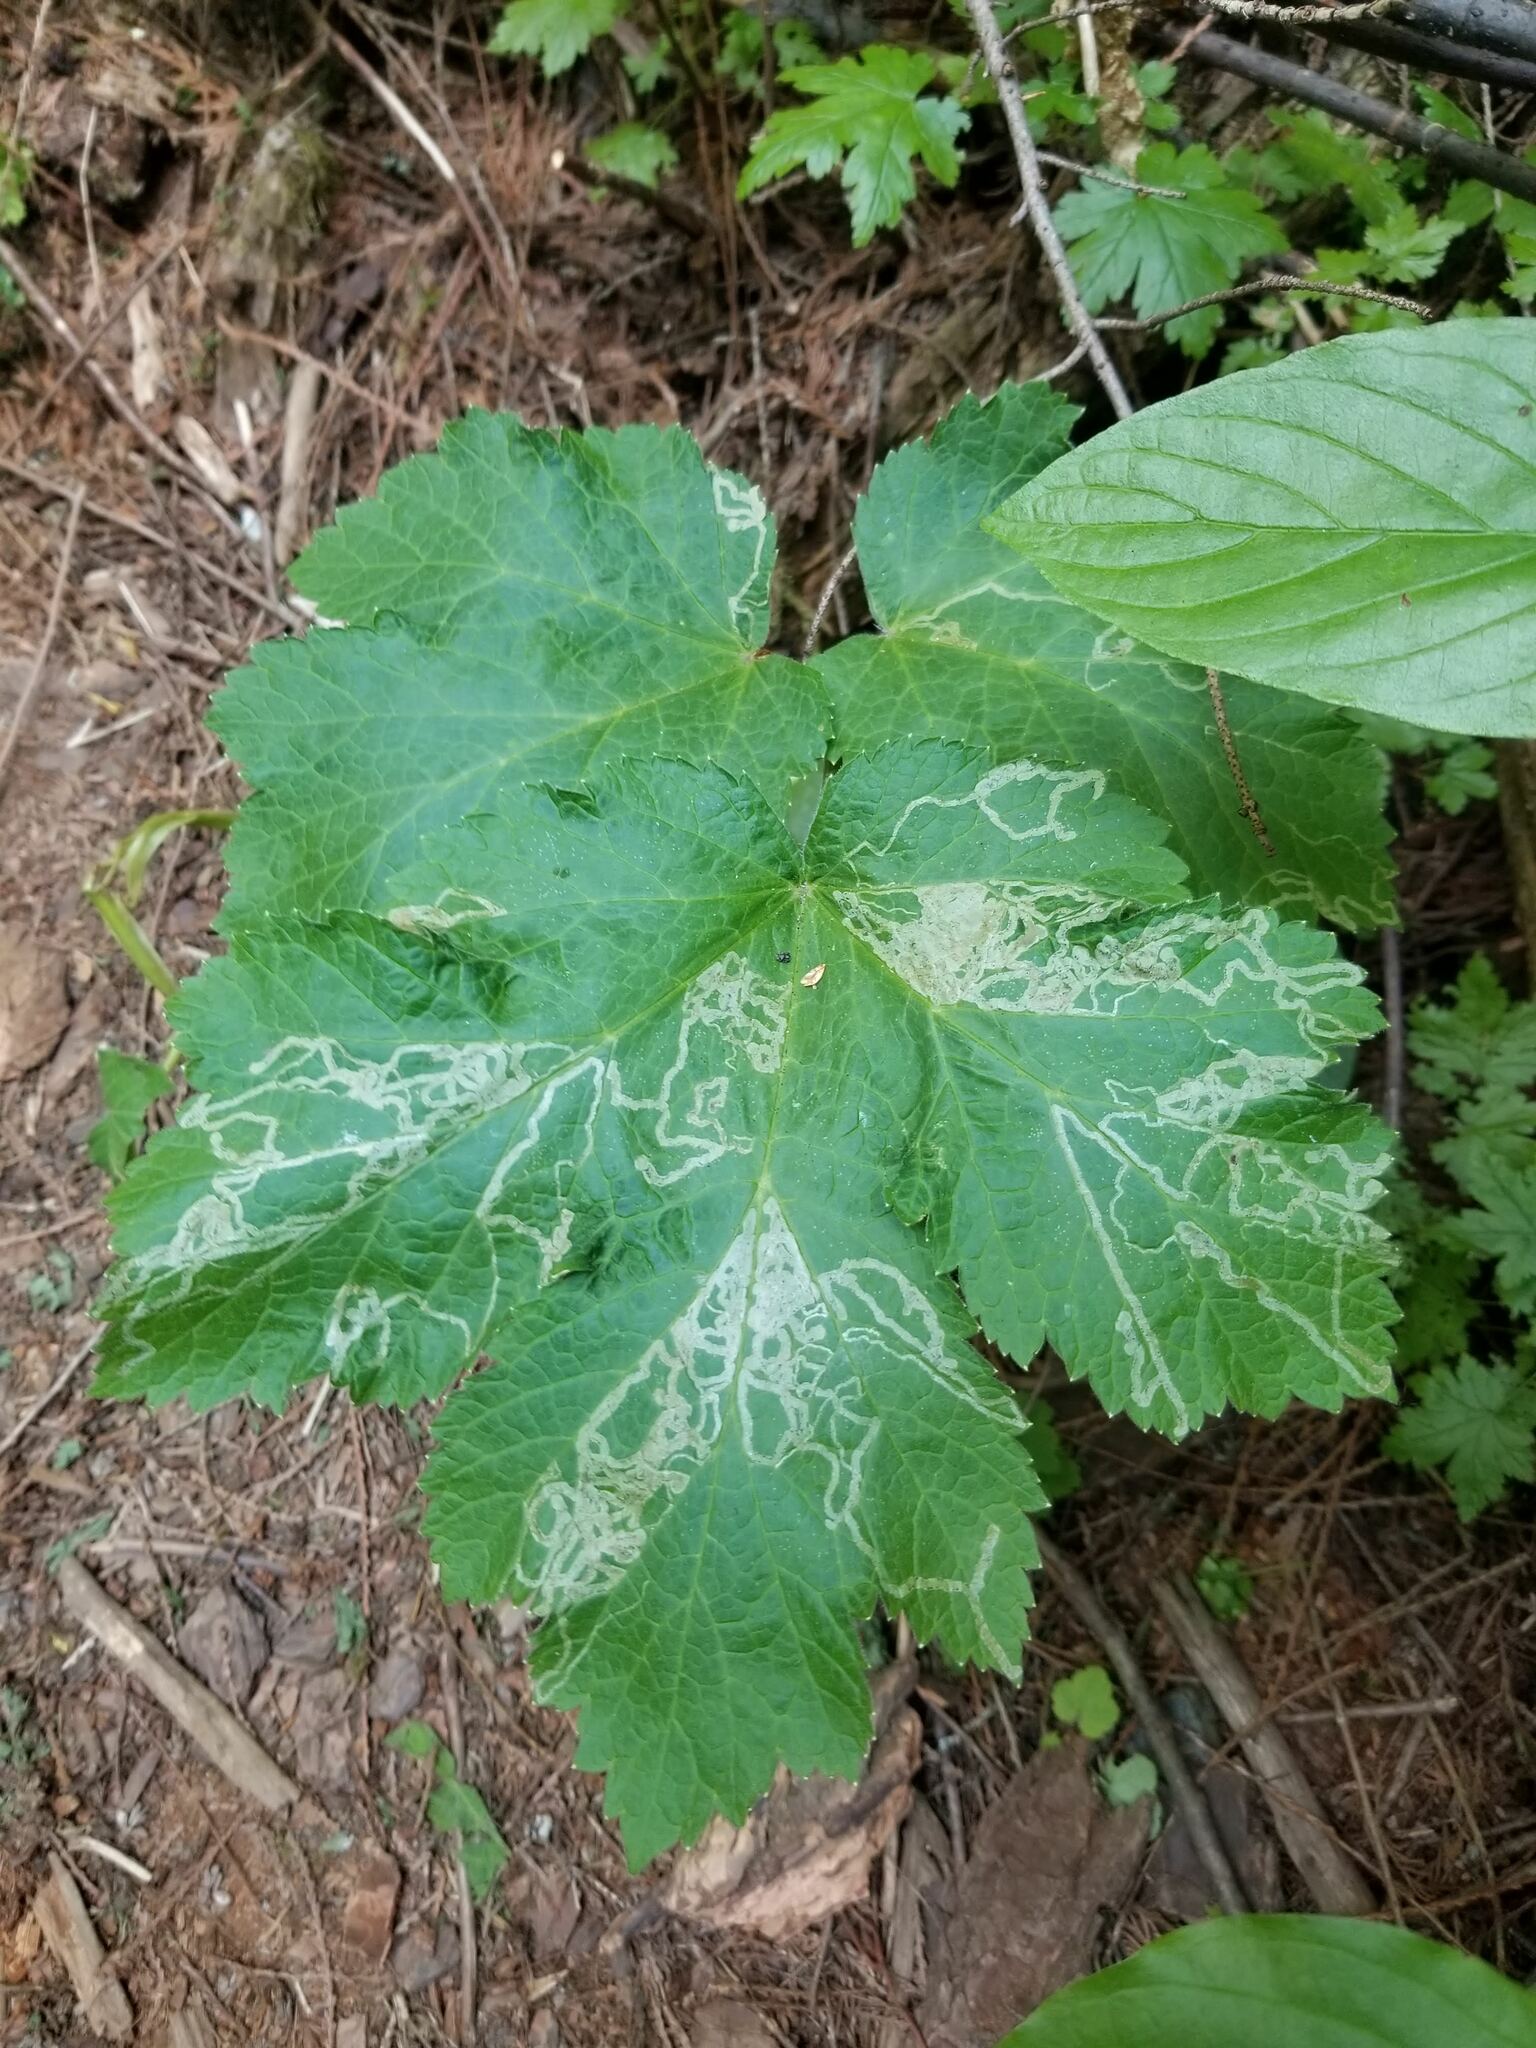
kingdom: Plantae
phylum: Tracheophyta
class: Magnoliopsida
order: Apiales
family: Apiaceae
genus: Heracleum
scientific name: Heracleum maximum
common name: American cow parsnip
